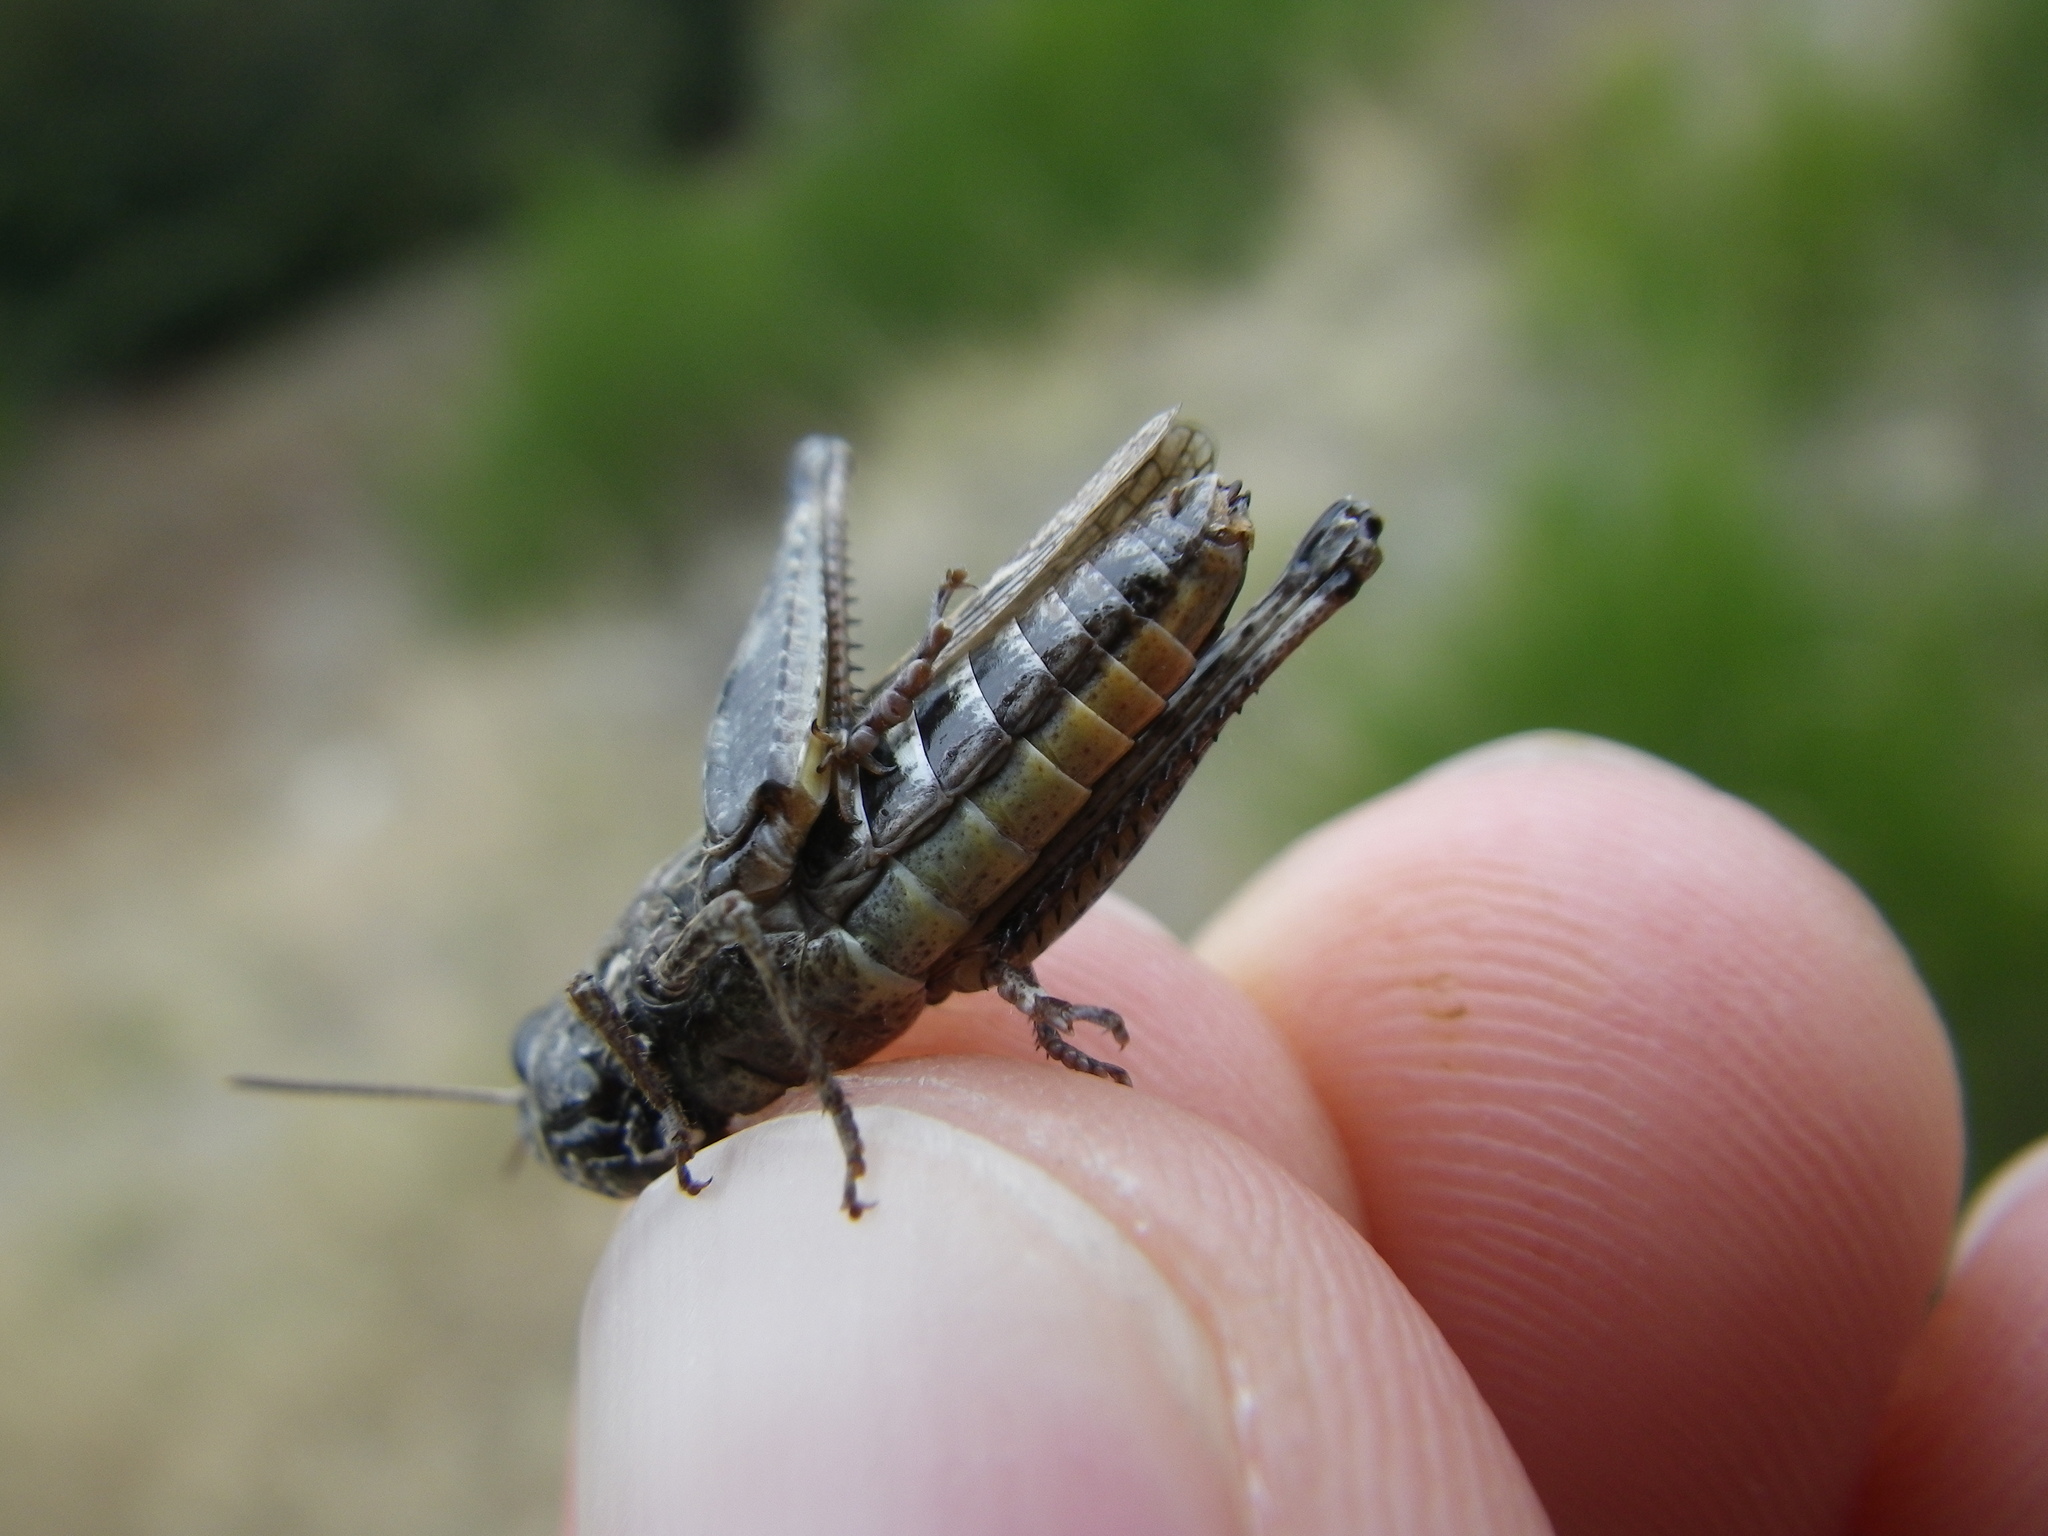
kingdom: Animalia
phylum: Arthropoda
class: Insecta
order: Orthoptera
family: Acrididae
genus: Omocestus
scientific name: Omocestus haemorrhoidalis
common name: Orange-tipped grasshopper
